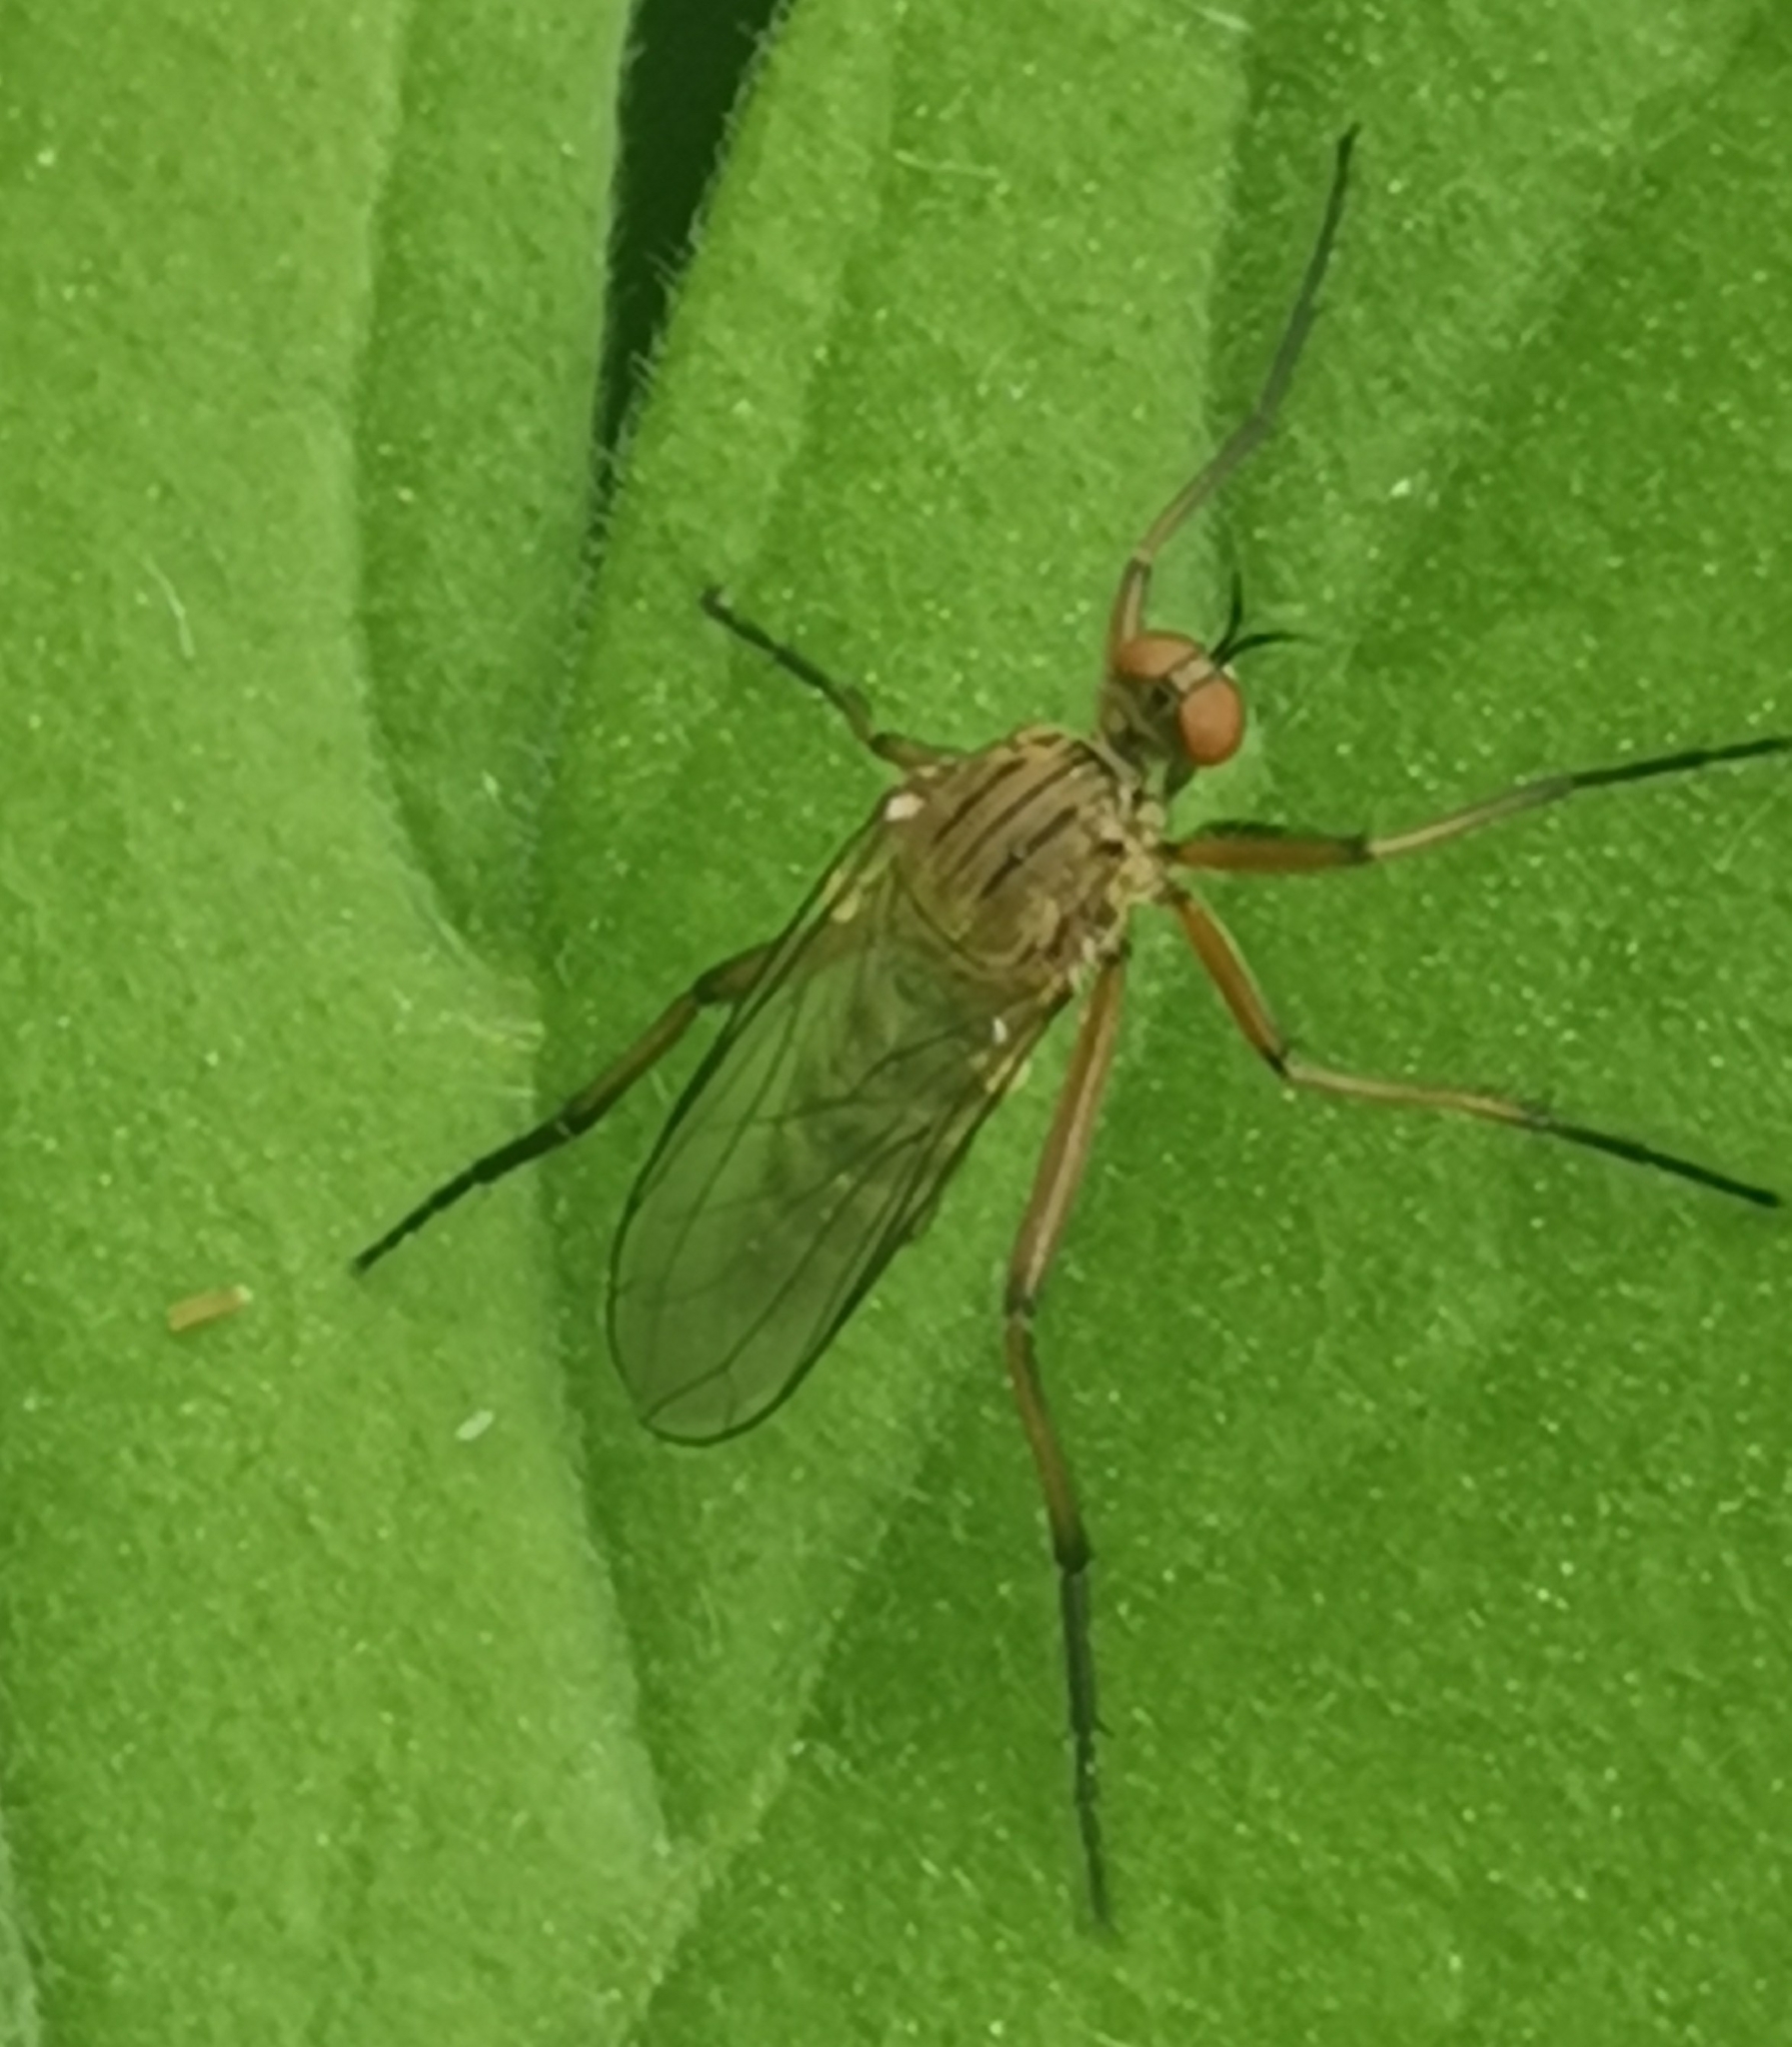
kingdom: Animalia
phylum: Arthropoda
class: Insecta
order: Diptera
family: Empididae
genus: Empis
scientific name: Empis livida
